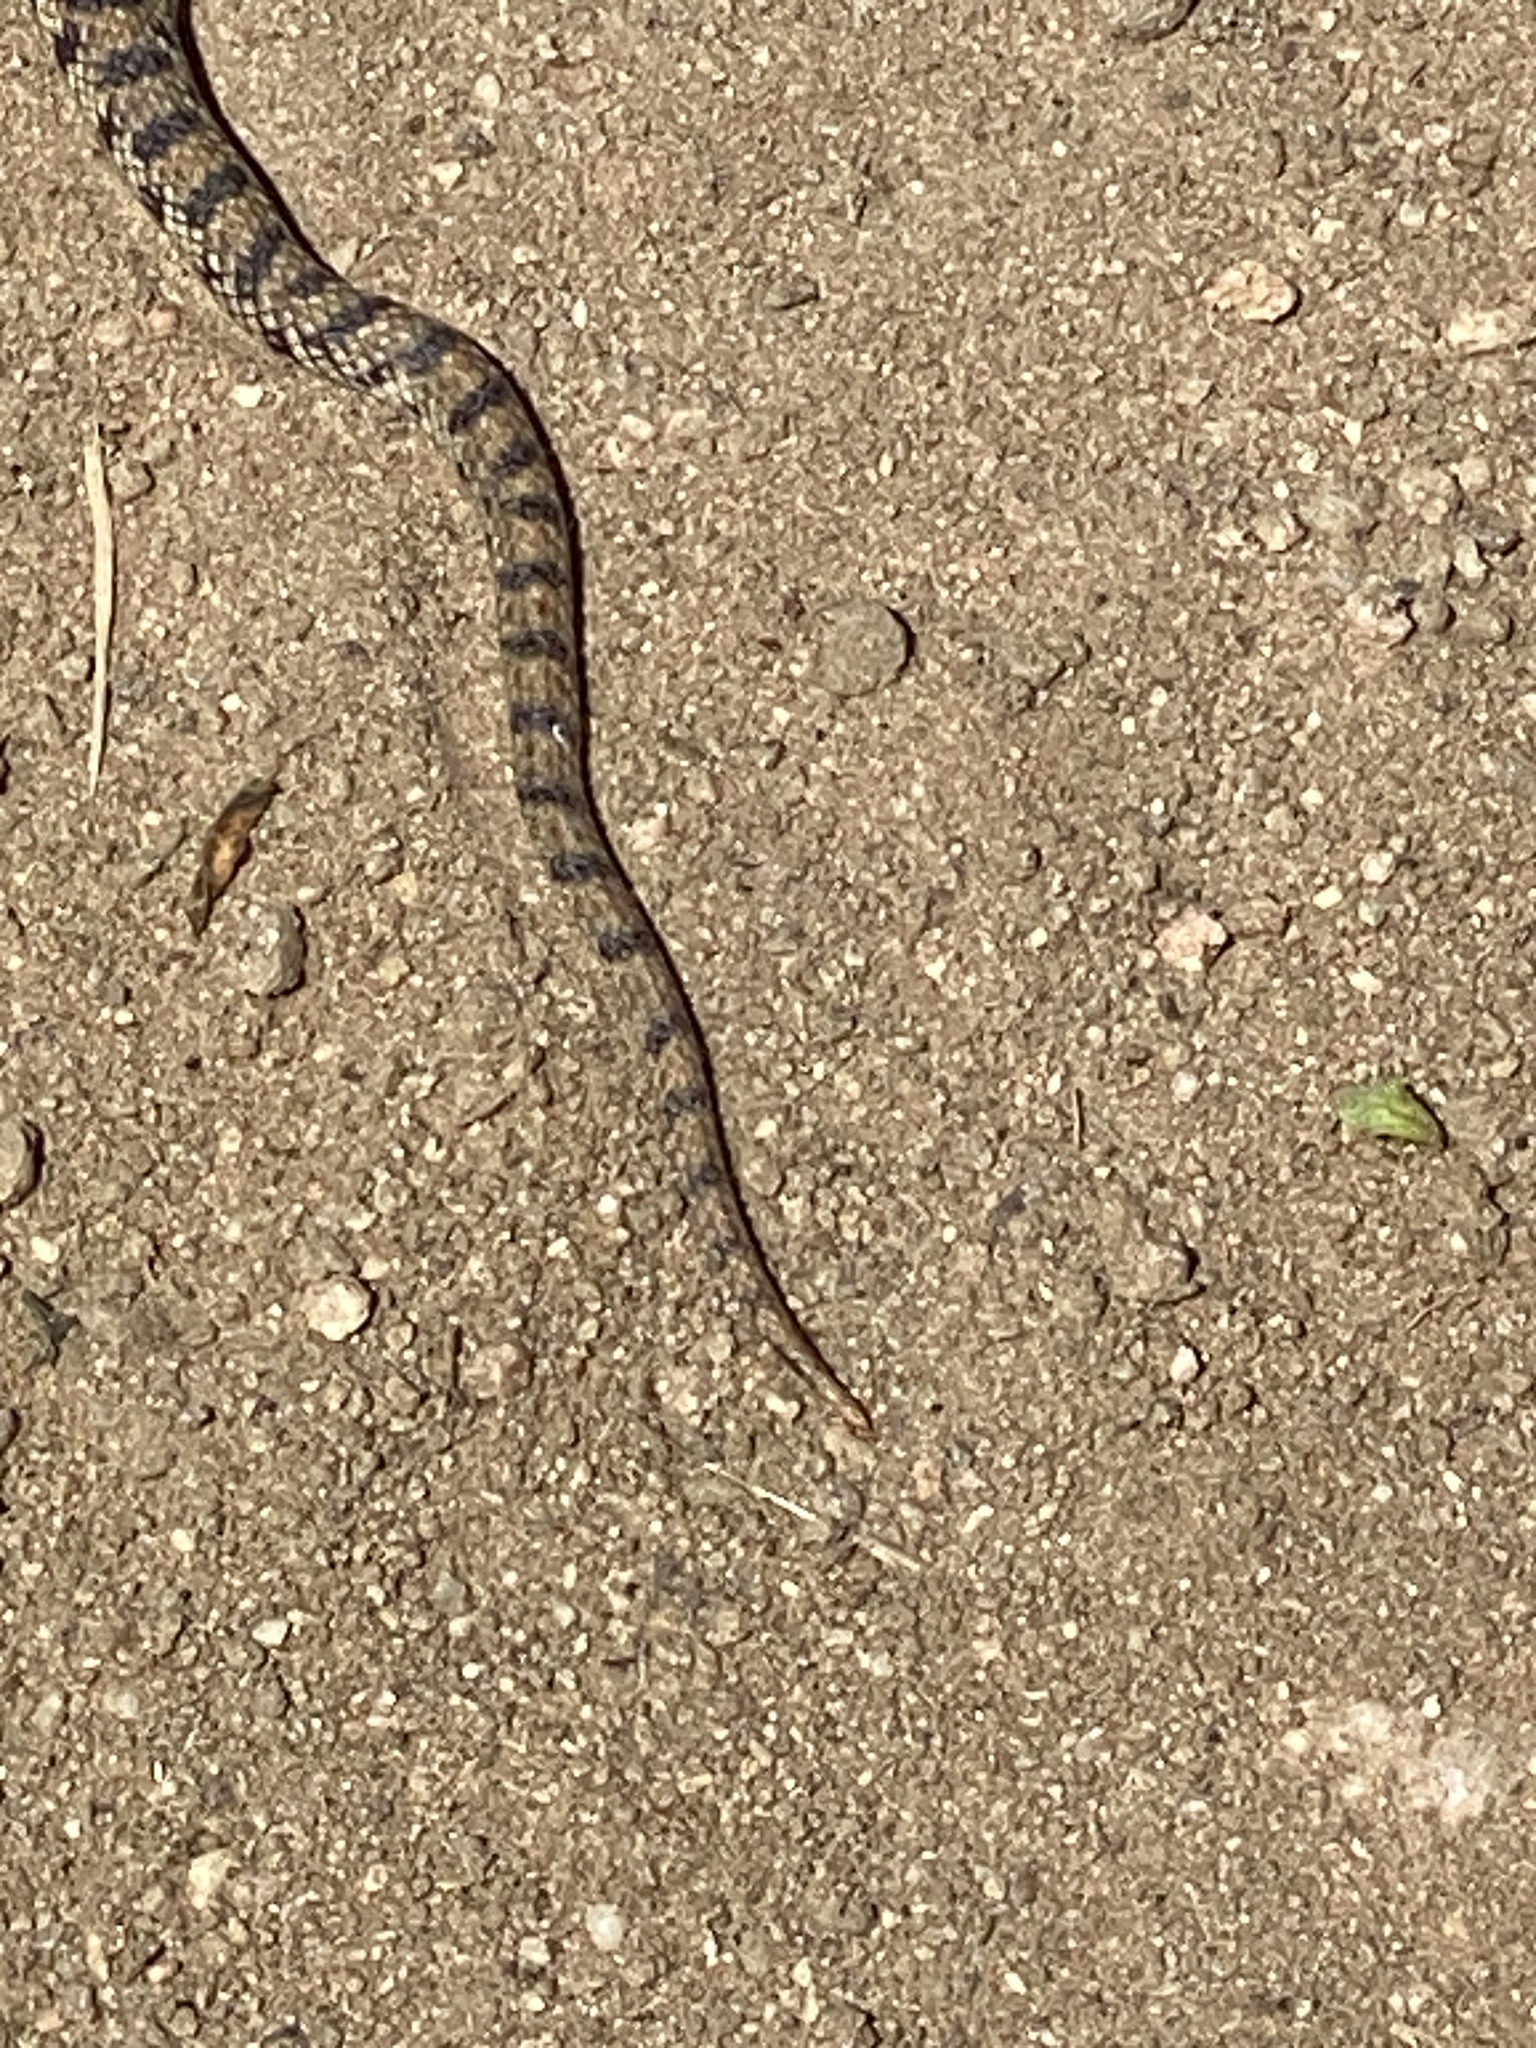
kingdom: Animalia
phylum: Chordata
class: Squamata
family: Colubridae
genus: Pituophis
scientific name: Pituophis catenifer
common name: Gopher snake
